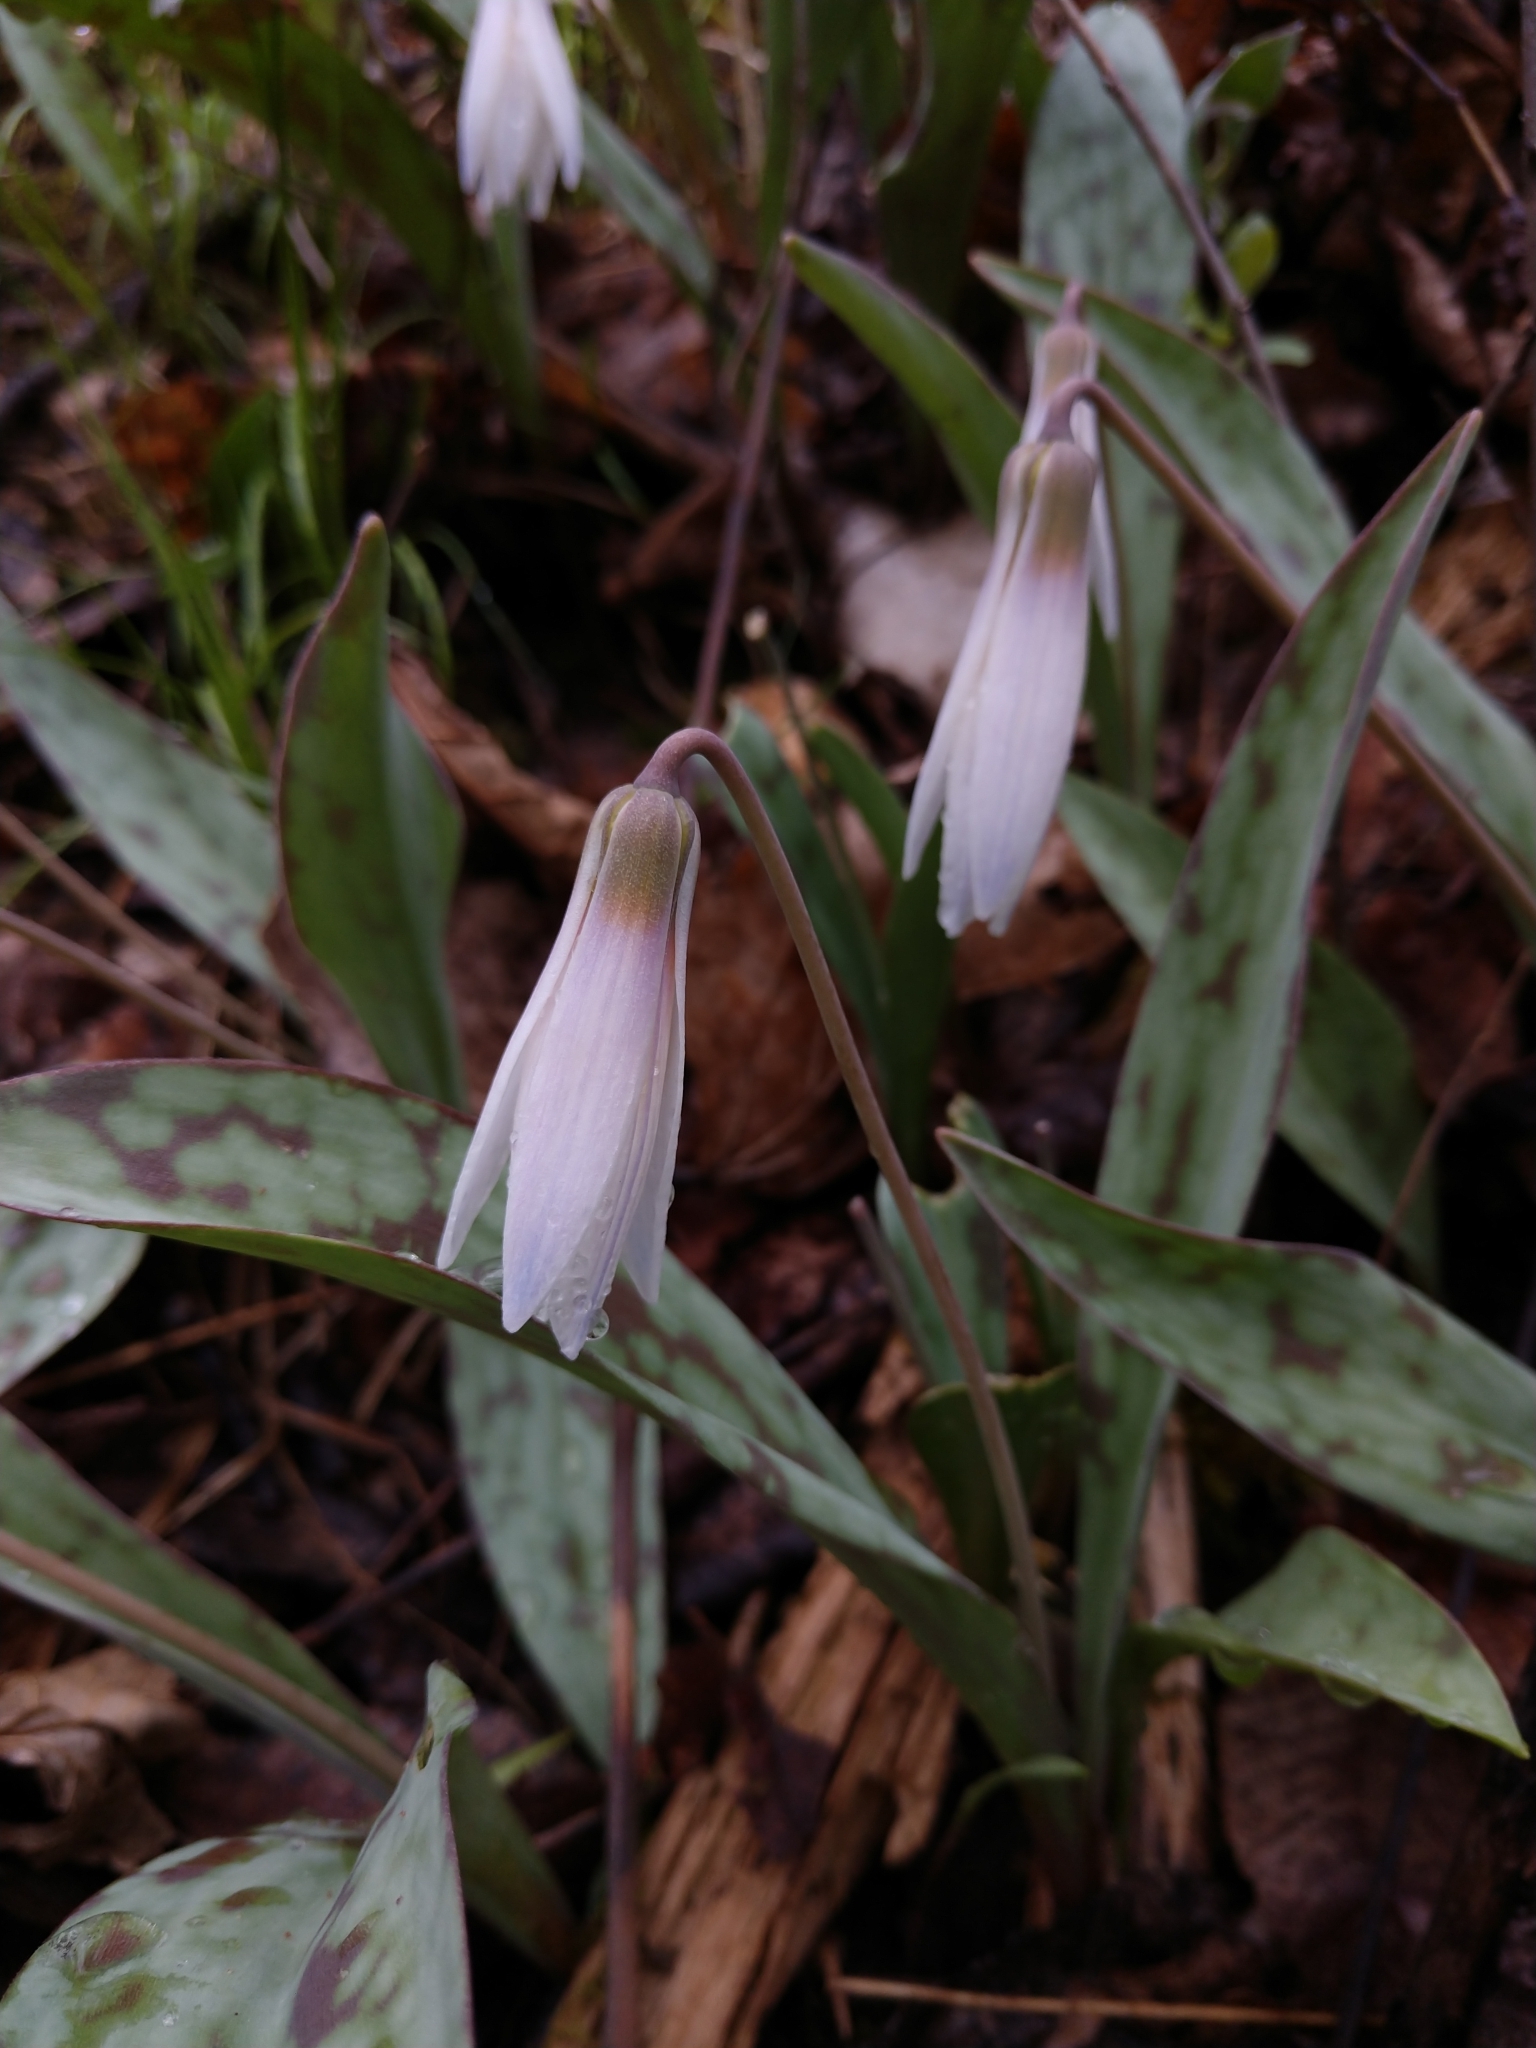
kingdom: Plantae
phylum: Tracheophyta
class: Liliopsida
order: Liliales
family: Liliaceae
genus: Erythronium
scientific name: Erythronium albidum
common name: White trout-lily
